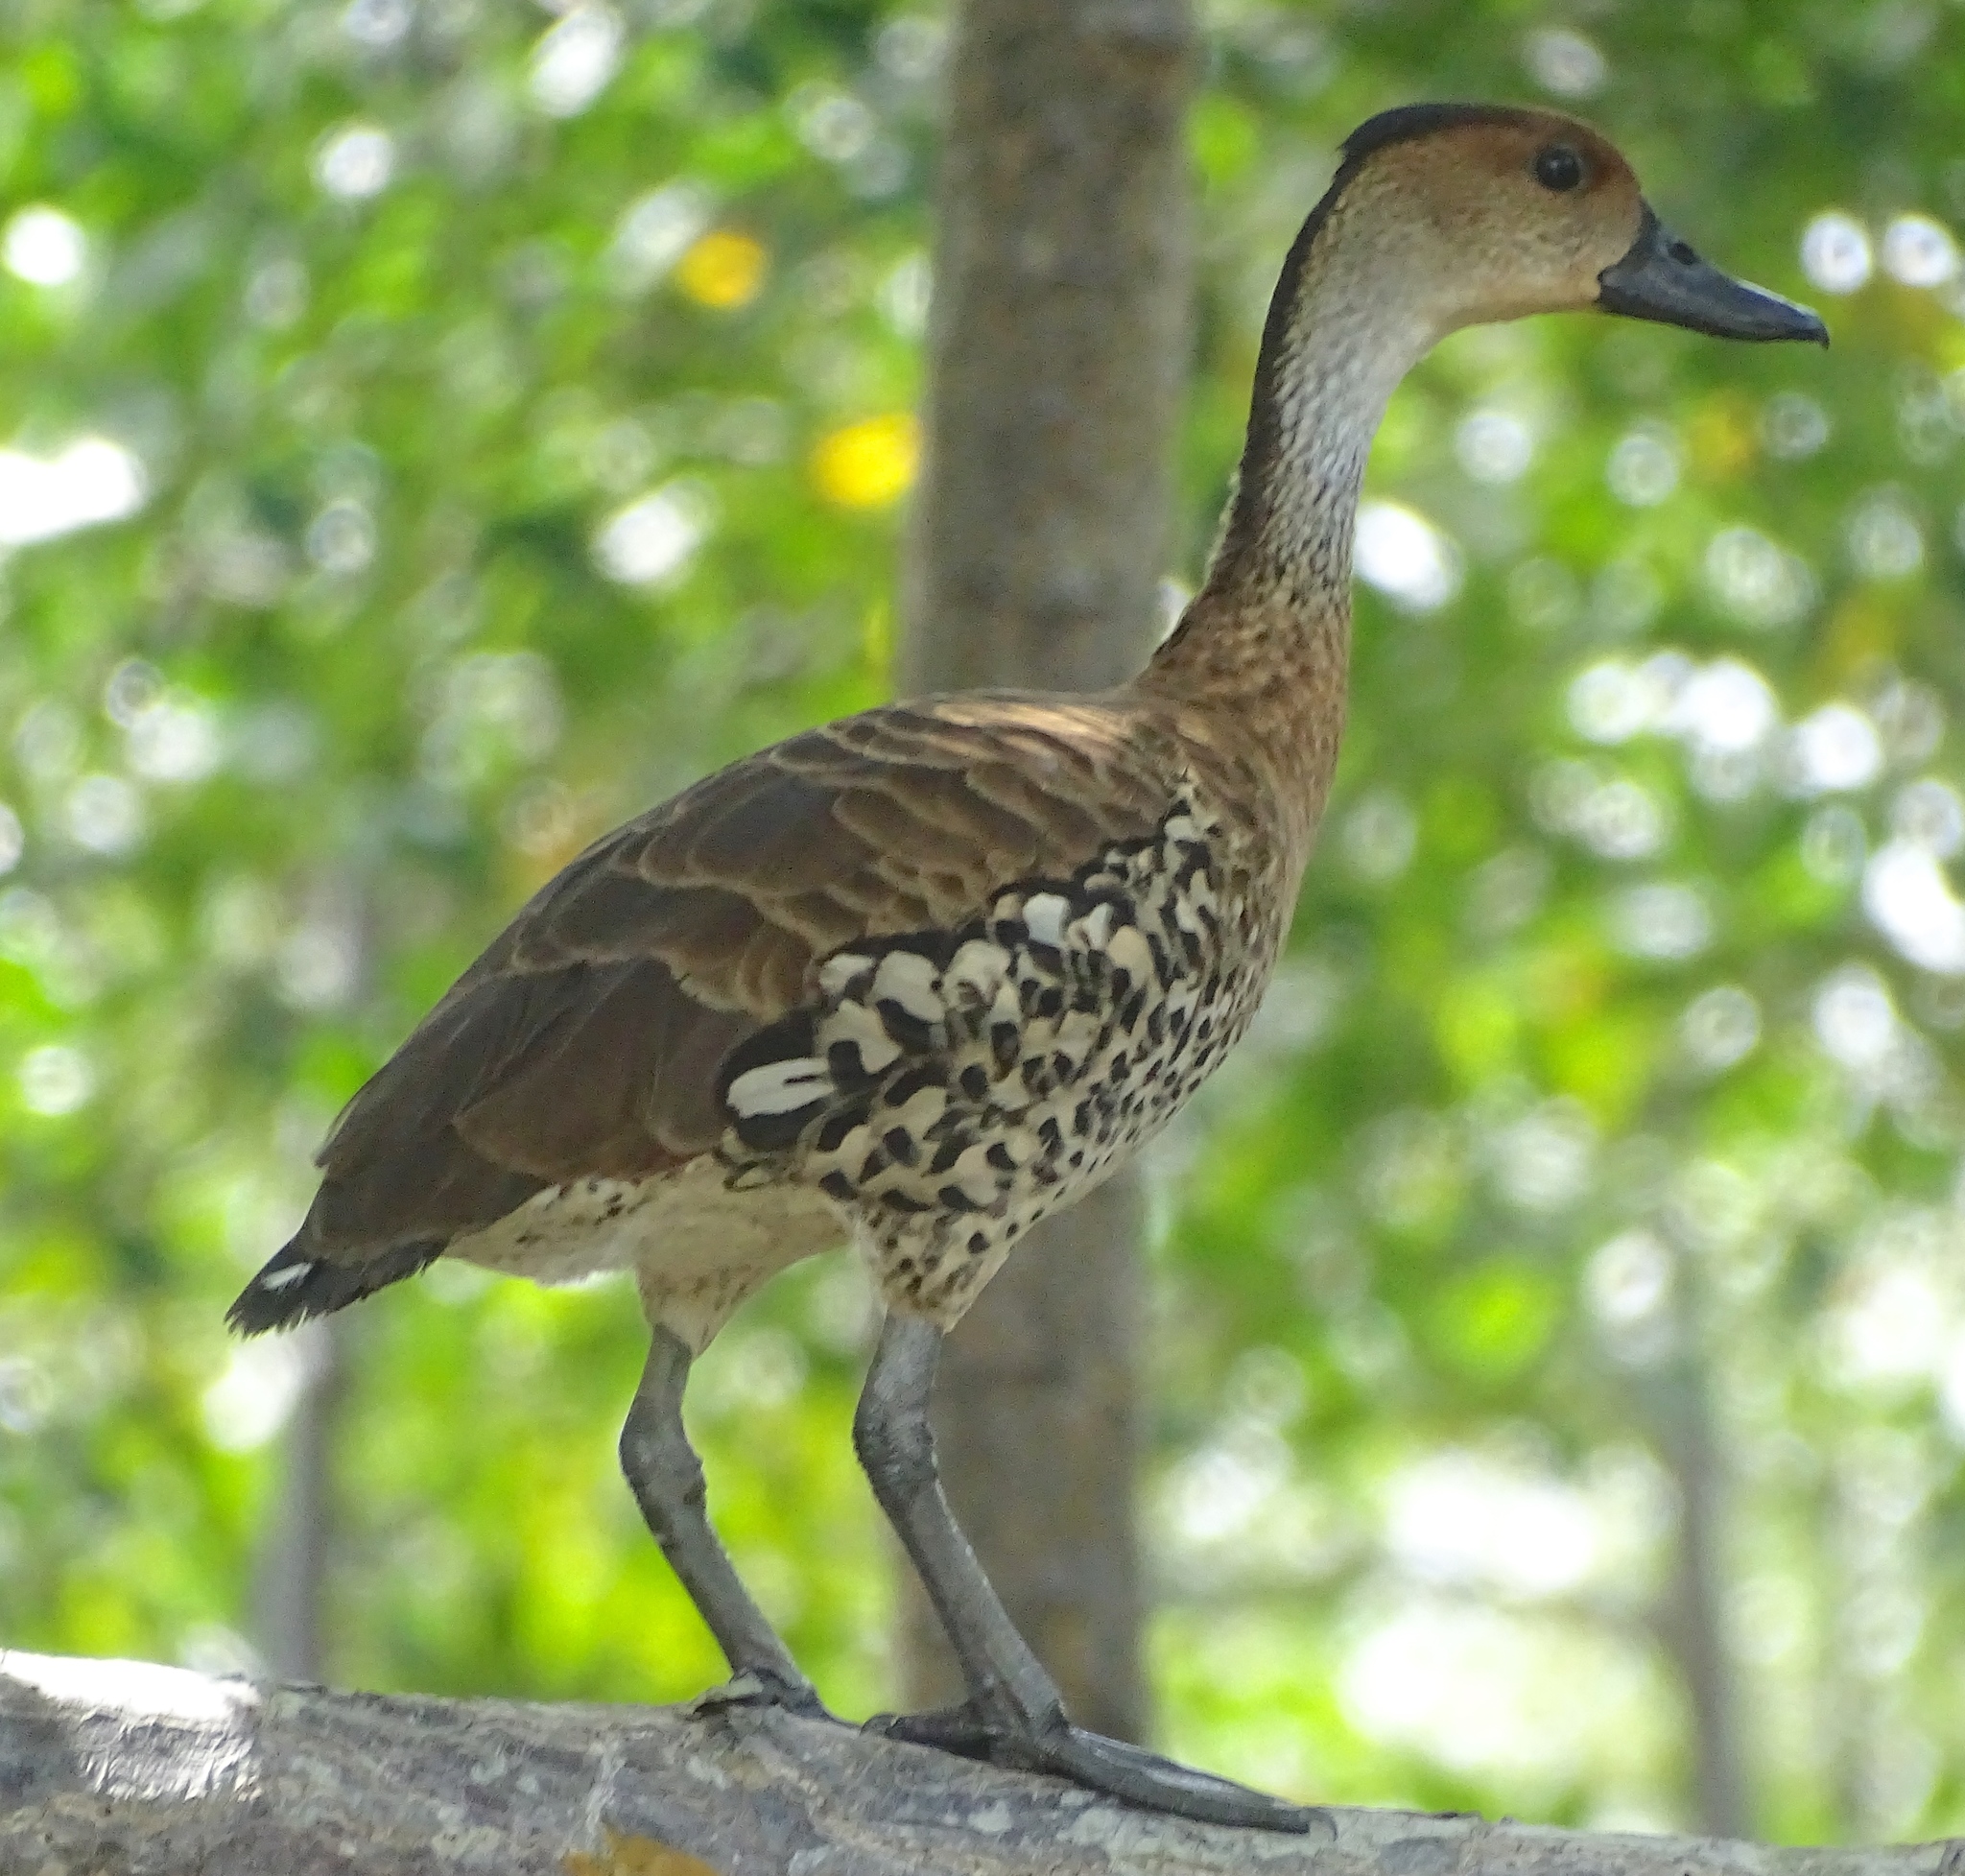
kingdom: Animalia
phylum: Chordata
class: Aves
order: Anseriformes
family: Anatidae
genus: Dendrocygna
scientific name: Dendrocygna arborea
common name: West indian whistling duck
